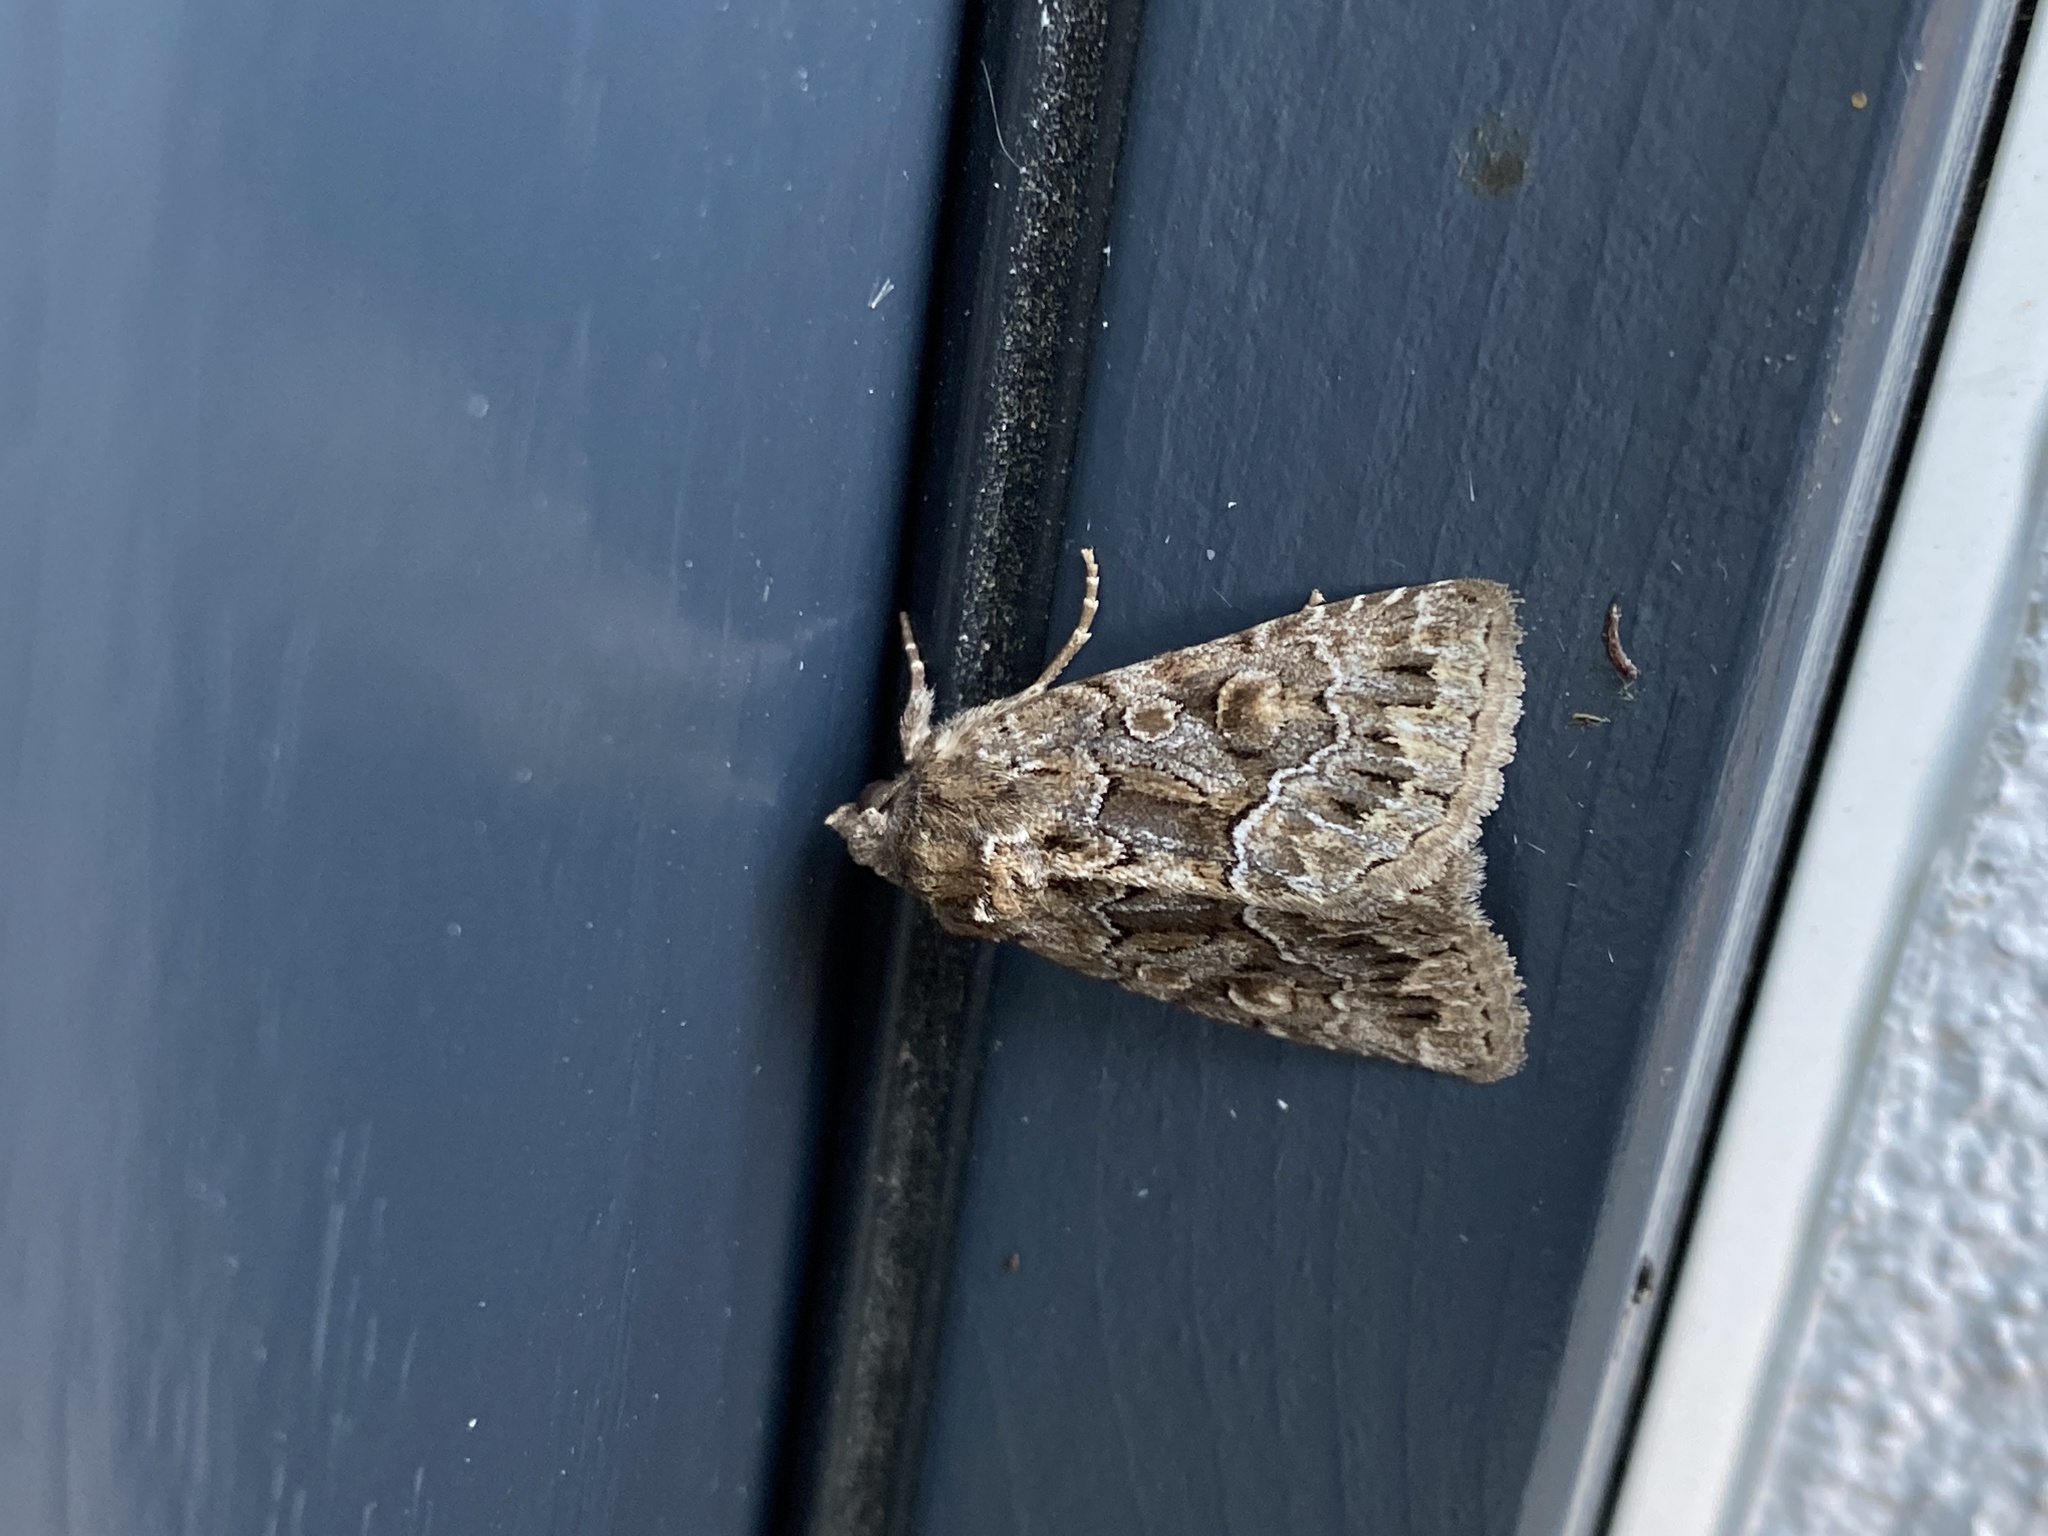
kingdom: Animalia
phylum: Arthropoda
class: Insecta
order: Lepidoptera
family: Noctuidae
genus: Thalpophila
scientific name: Thalpophila matura
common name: Straw underwing
